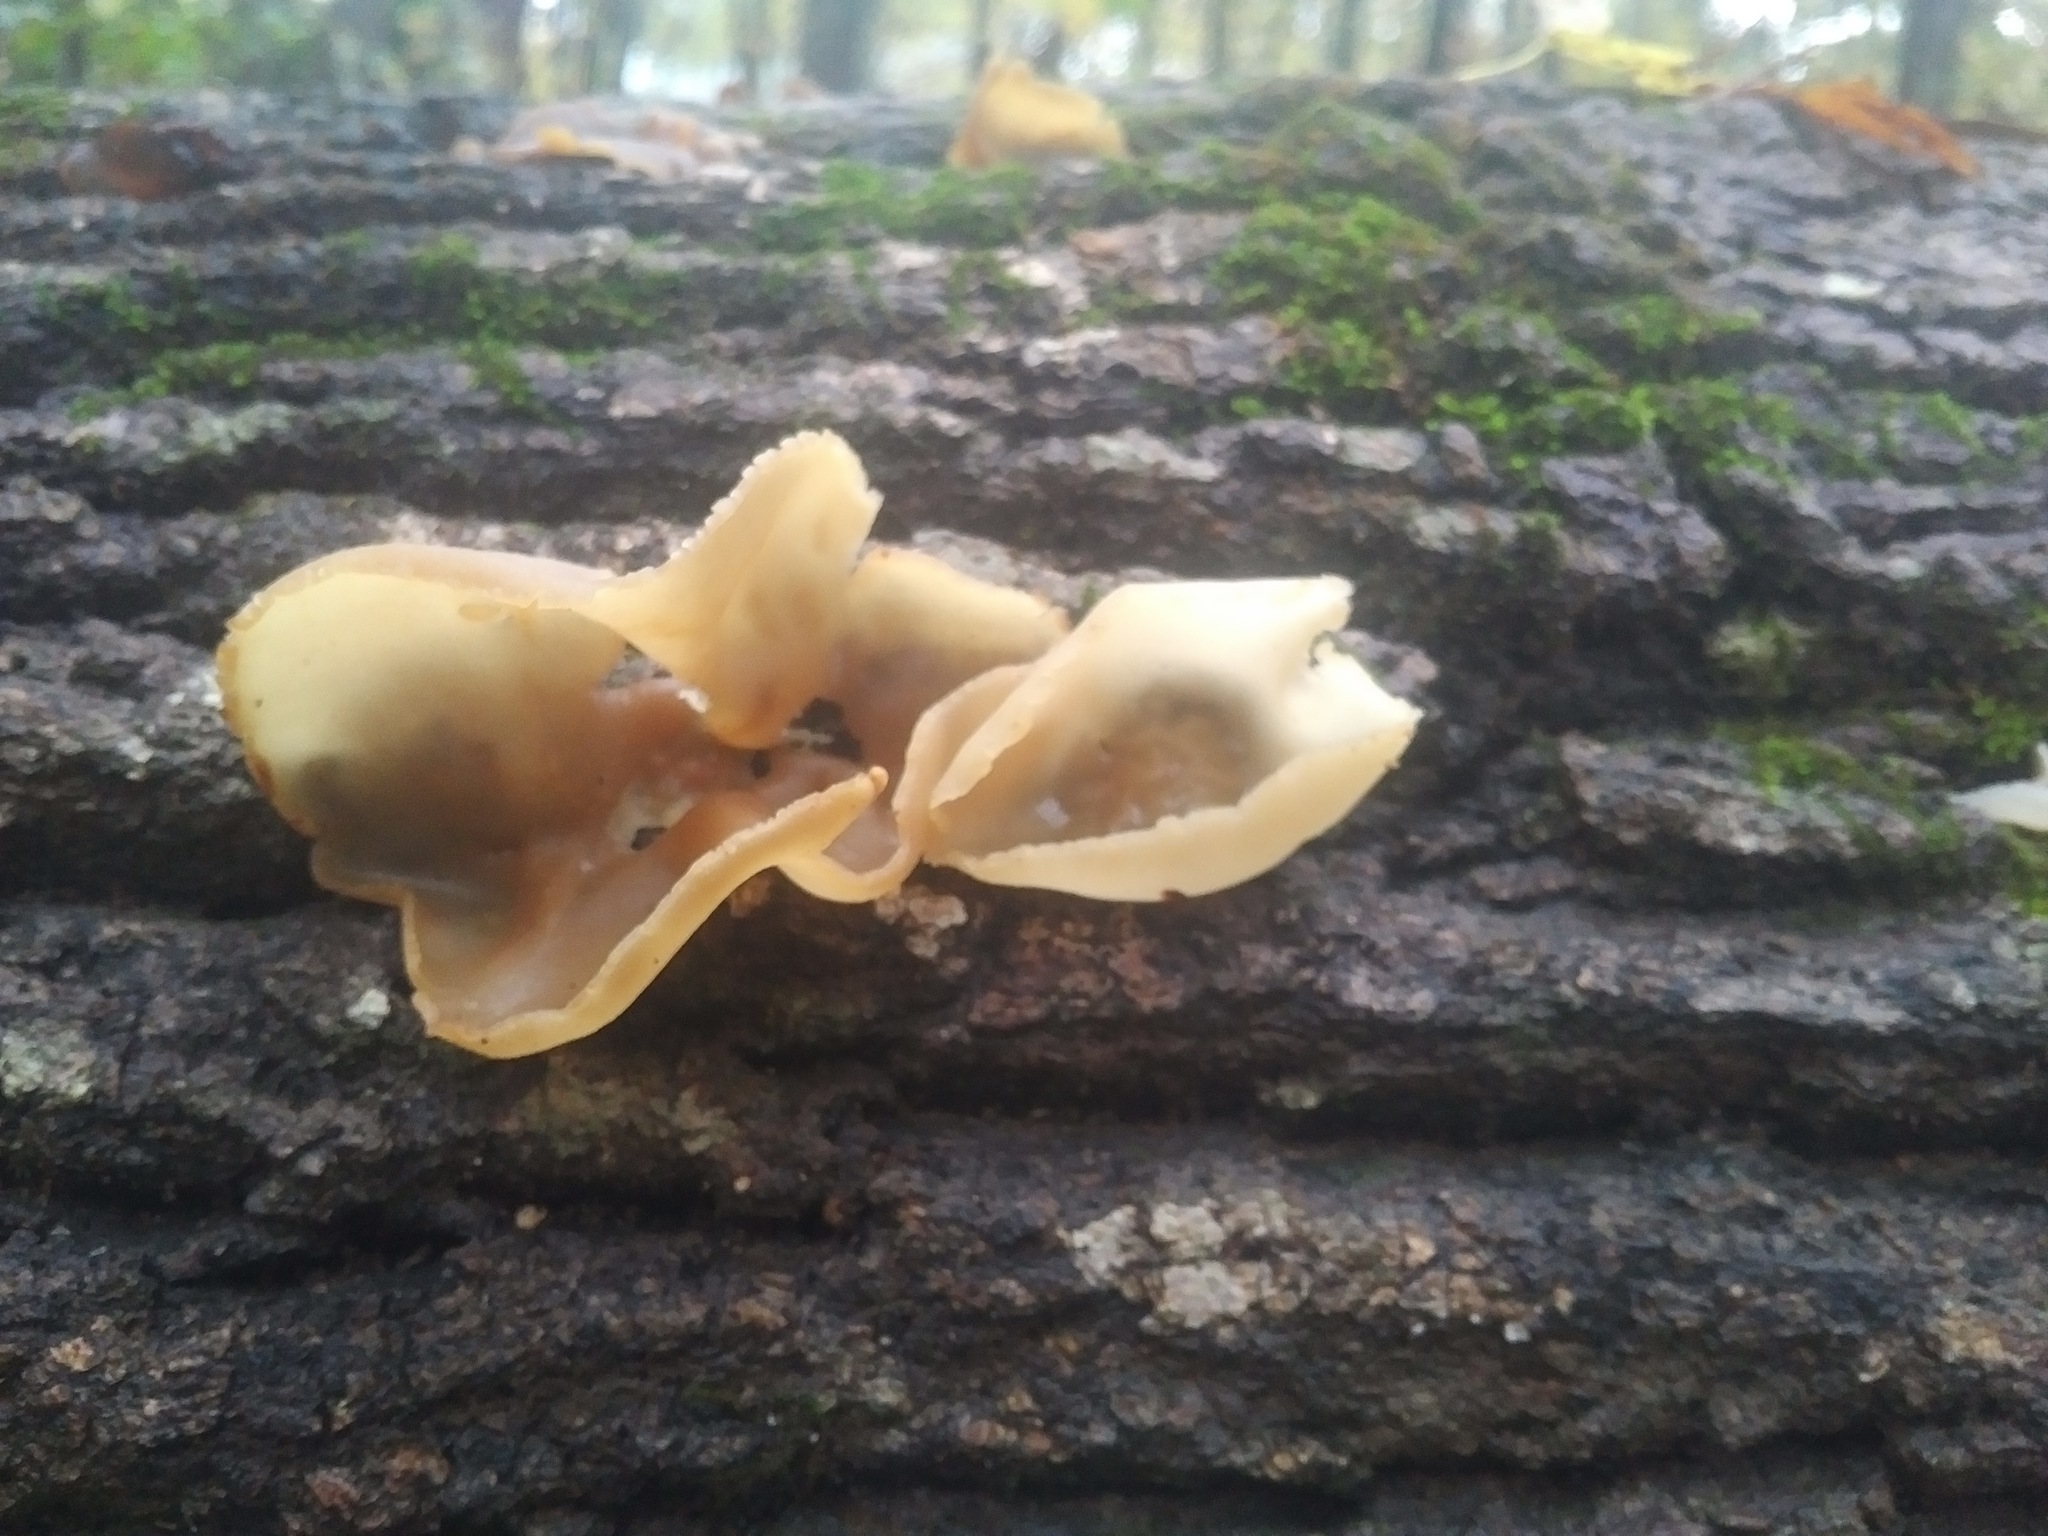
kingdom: Fungi
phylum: Ascomycota
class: Pezizomycetes
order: Pezizales
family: Pezizaceae
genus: Peziza
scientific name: Peziza varia
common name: Layered cup
